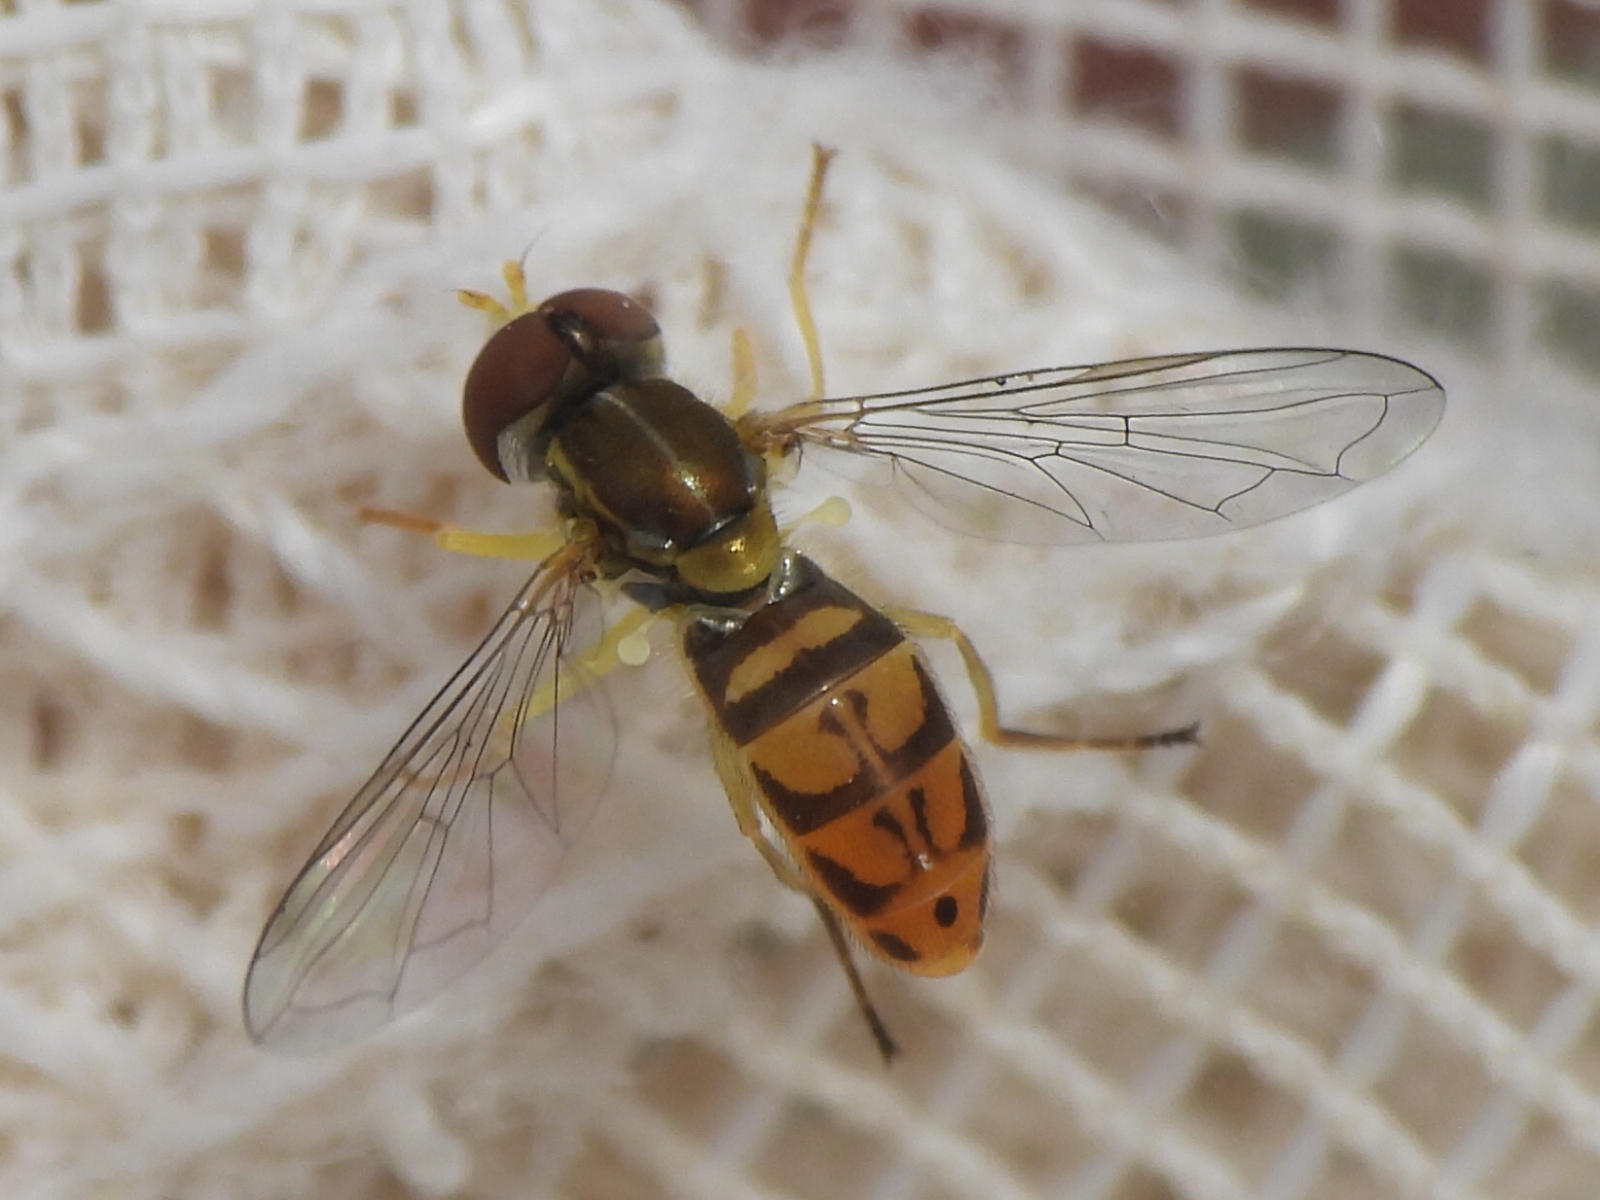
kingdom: Animalia
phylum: Arthropoda
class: Insecta
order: Diptera
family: Syrphidae
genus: Toxomerus
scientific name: Toxomerus marginatus
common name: Syrphid fly
